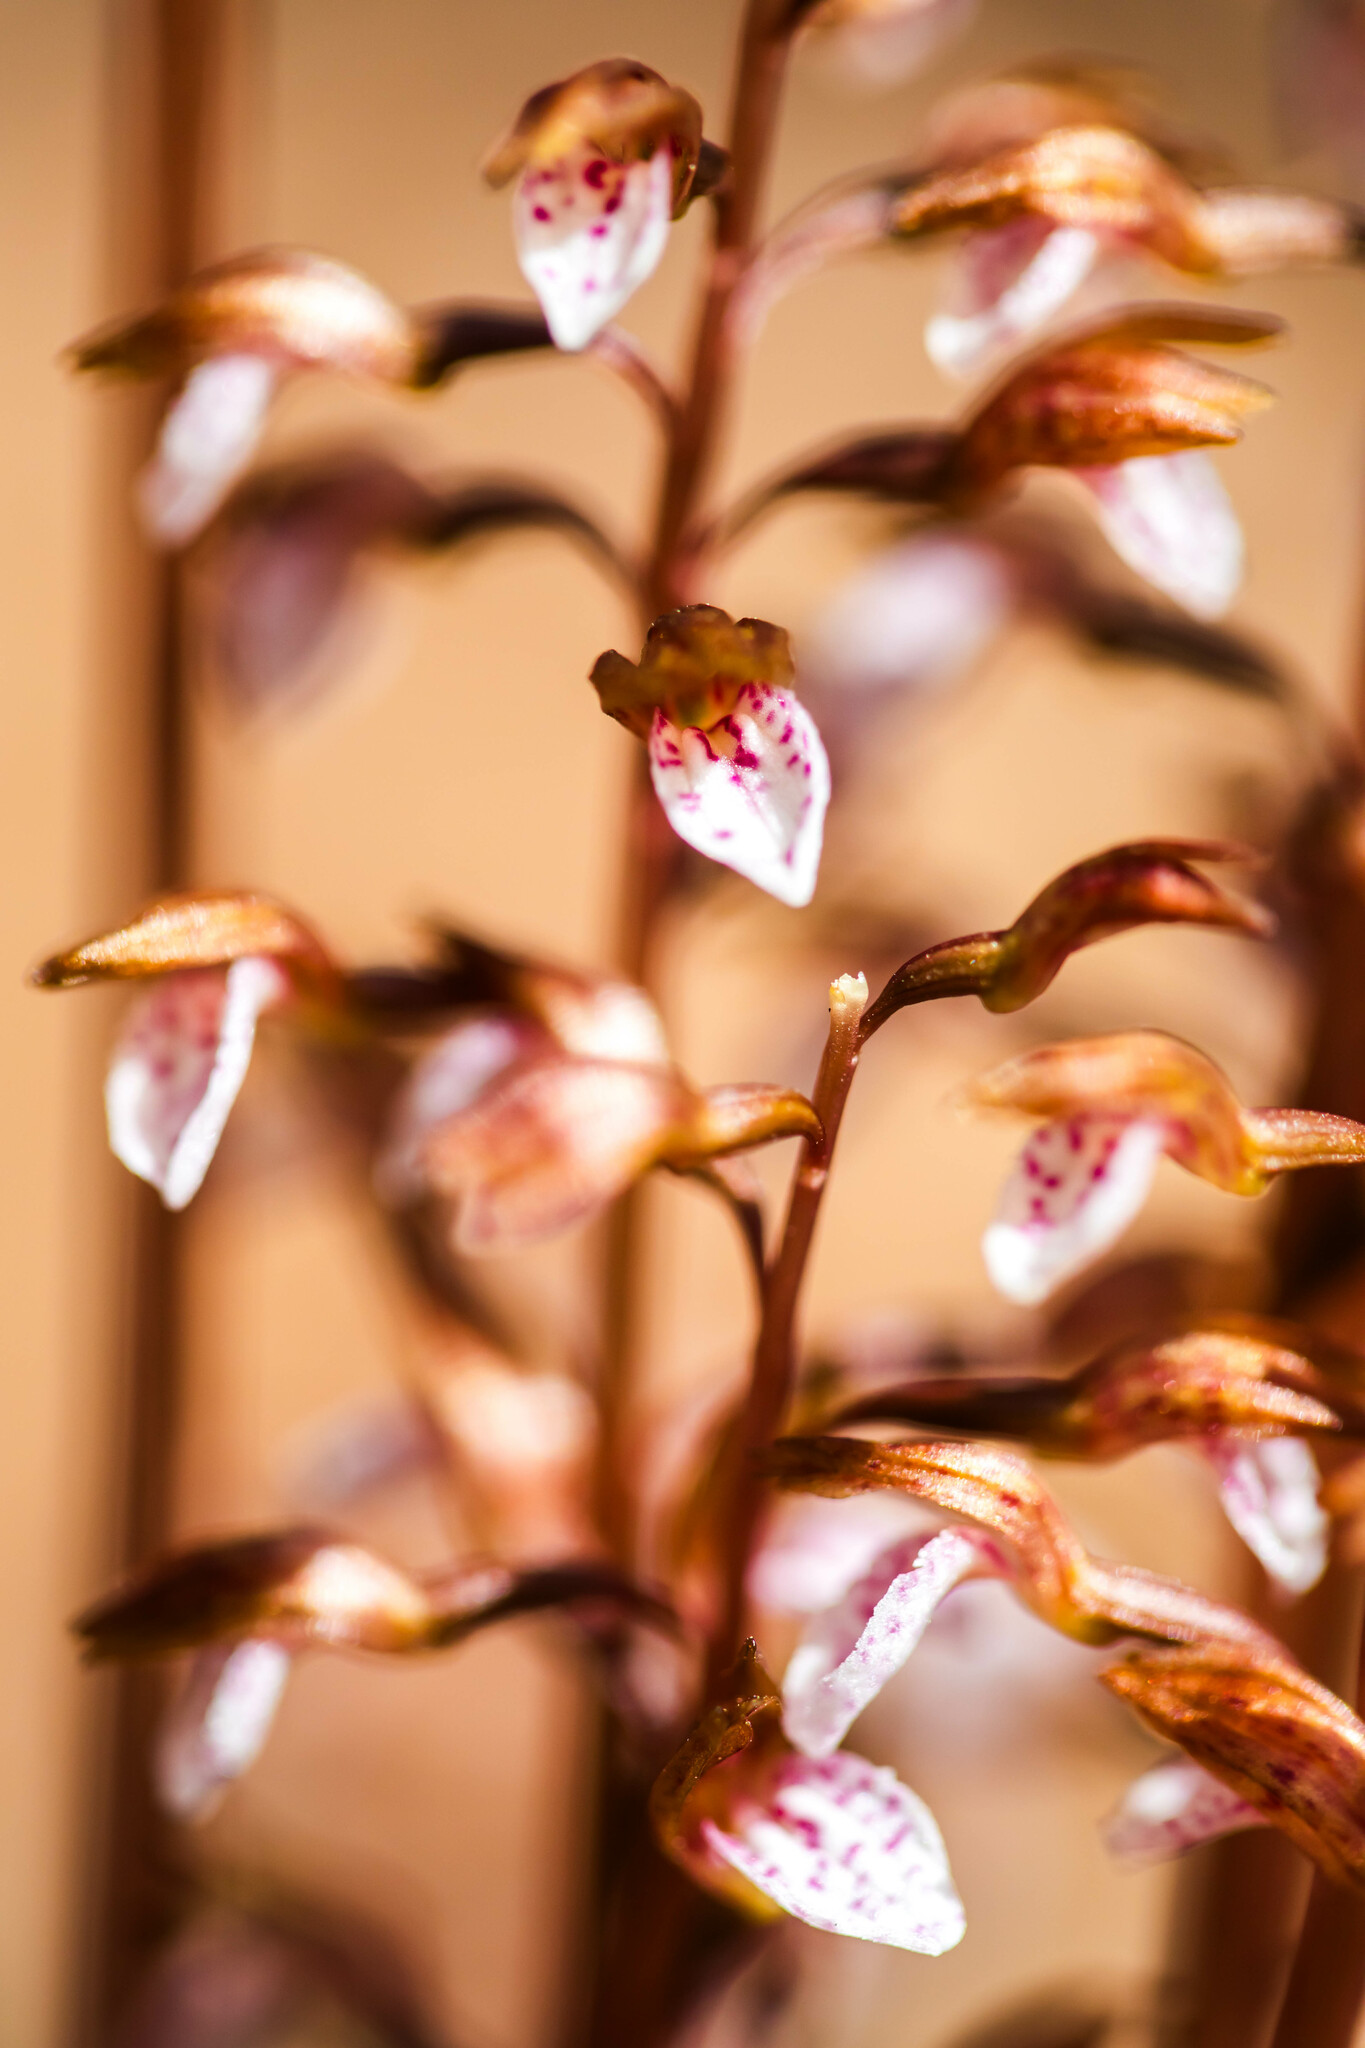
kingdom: Plantae
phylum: Tracheophyta
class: Liliopsida
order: Asparagales
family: Orchidaceae
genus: Corallorhiza
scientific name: Corallorhiza wisteriana
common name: Spring coralroot
